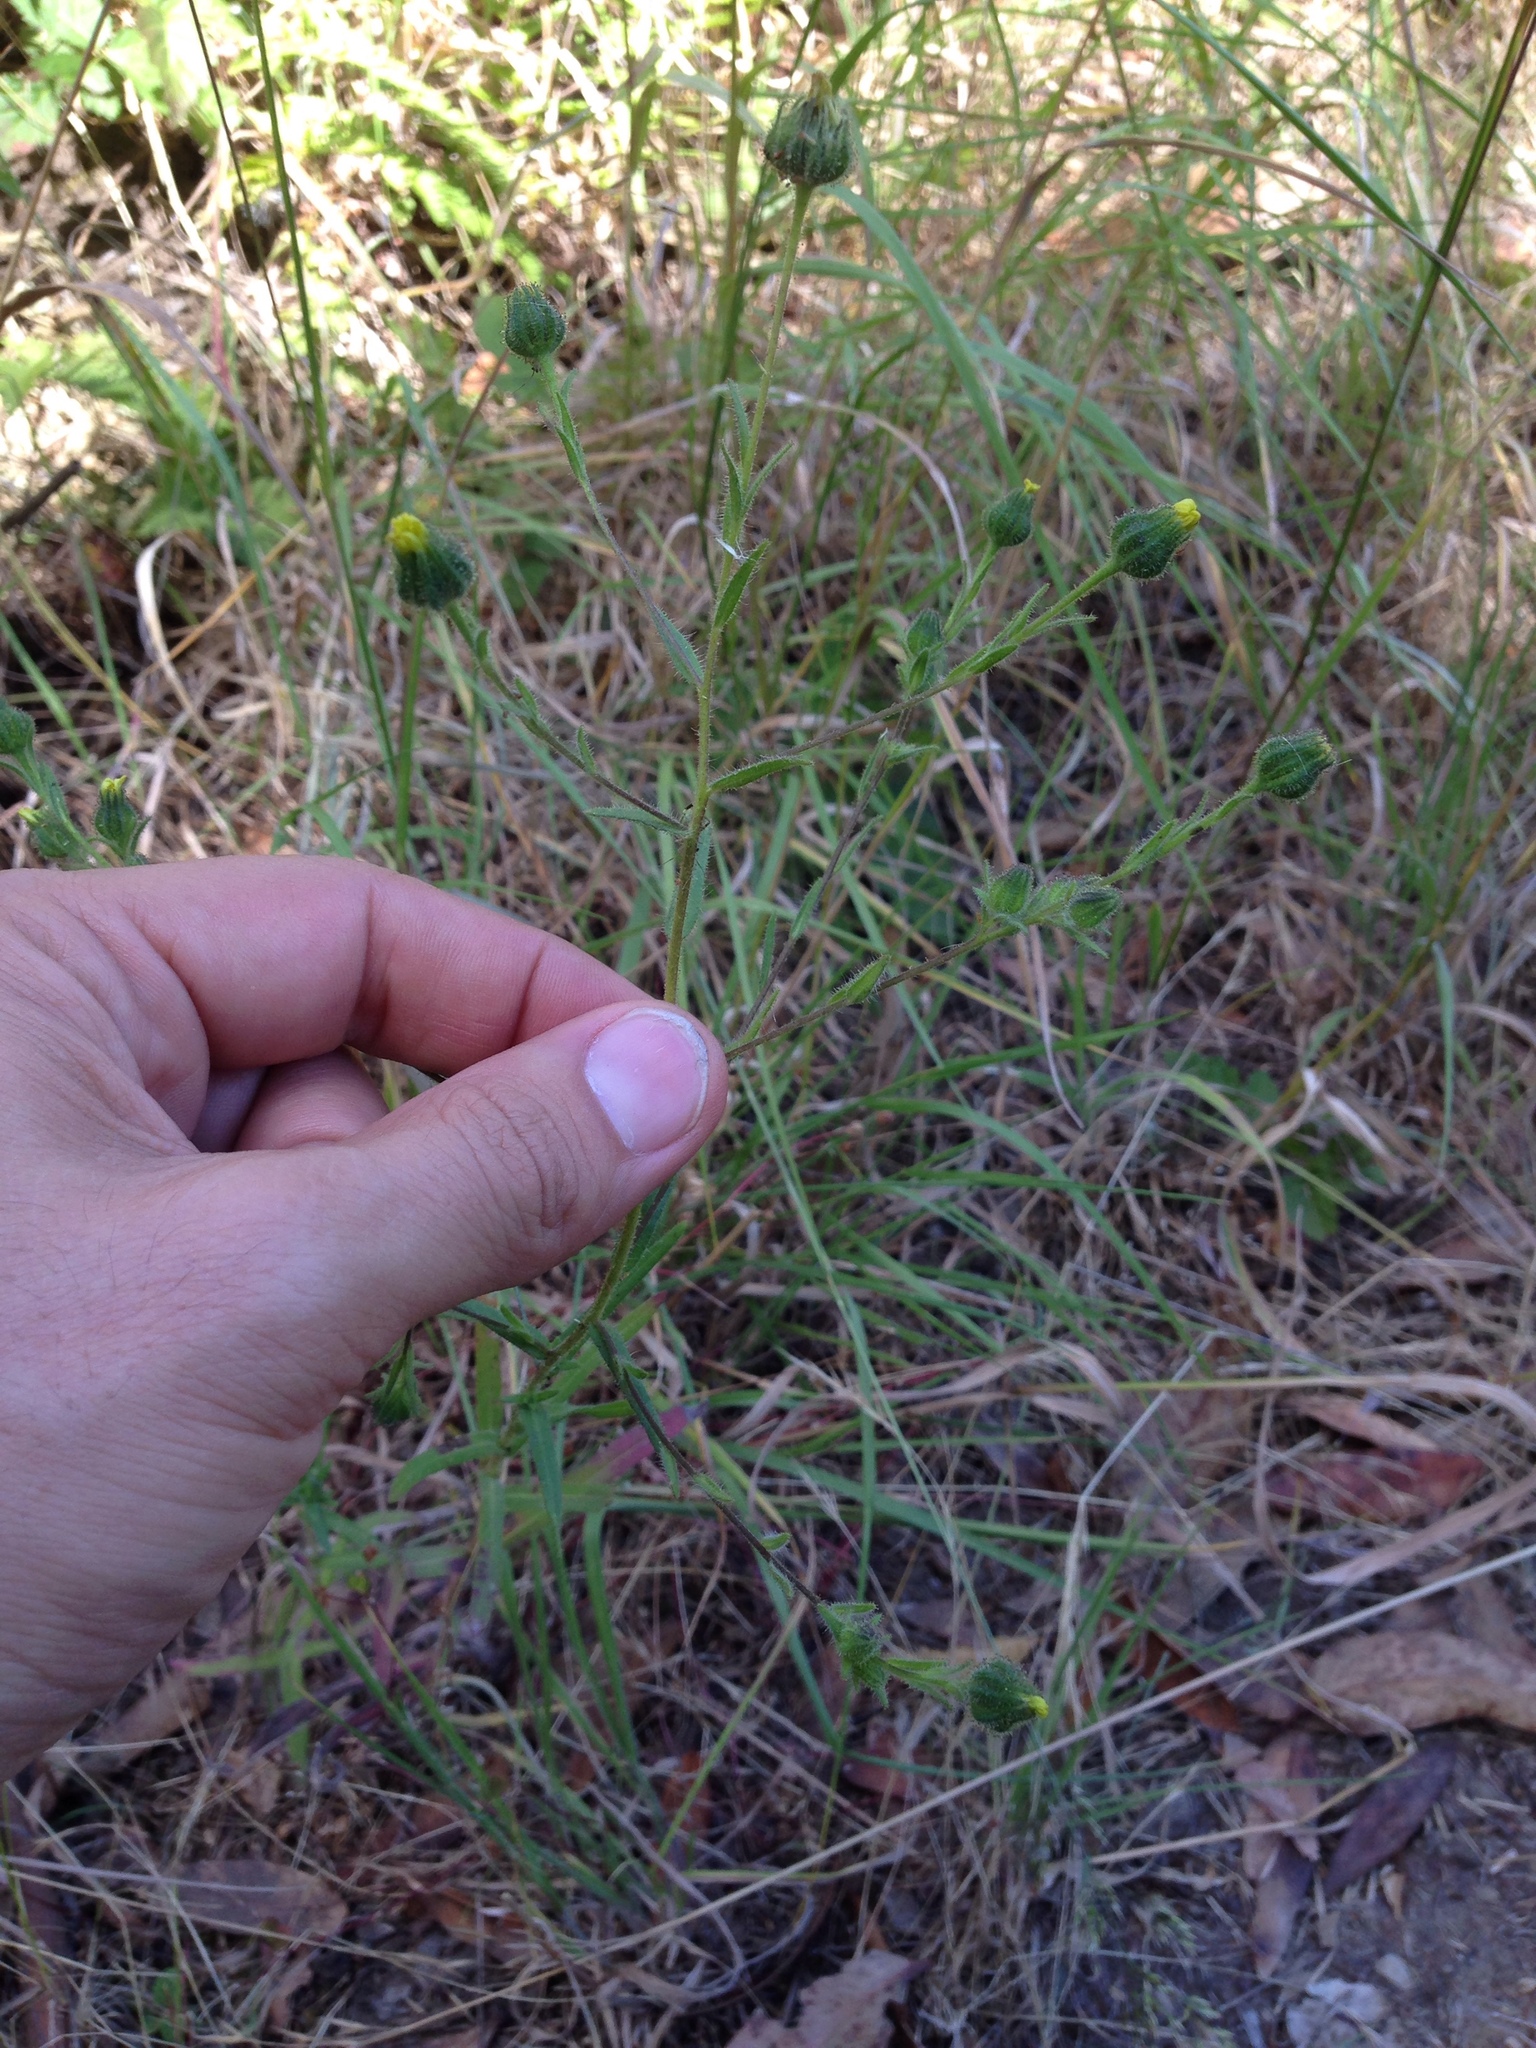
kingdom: Plantae
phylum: Tracheophyta
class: Magnoliopsida
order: Asterales
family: Asteraceae
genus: Madia
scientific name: Madia gracilis
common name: Grassy tarweed
